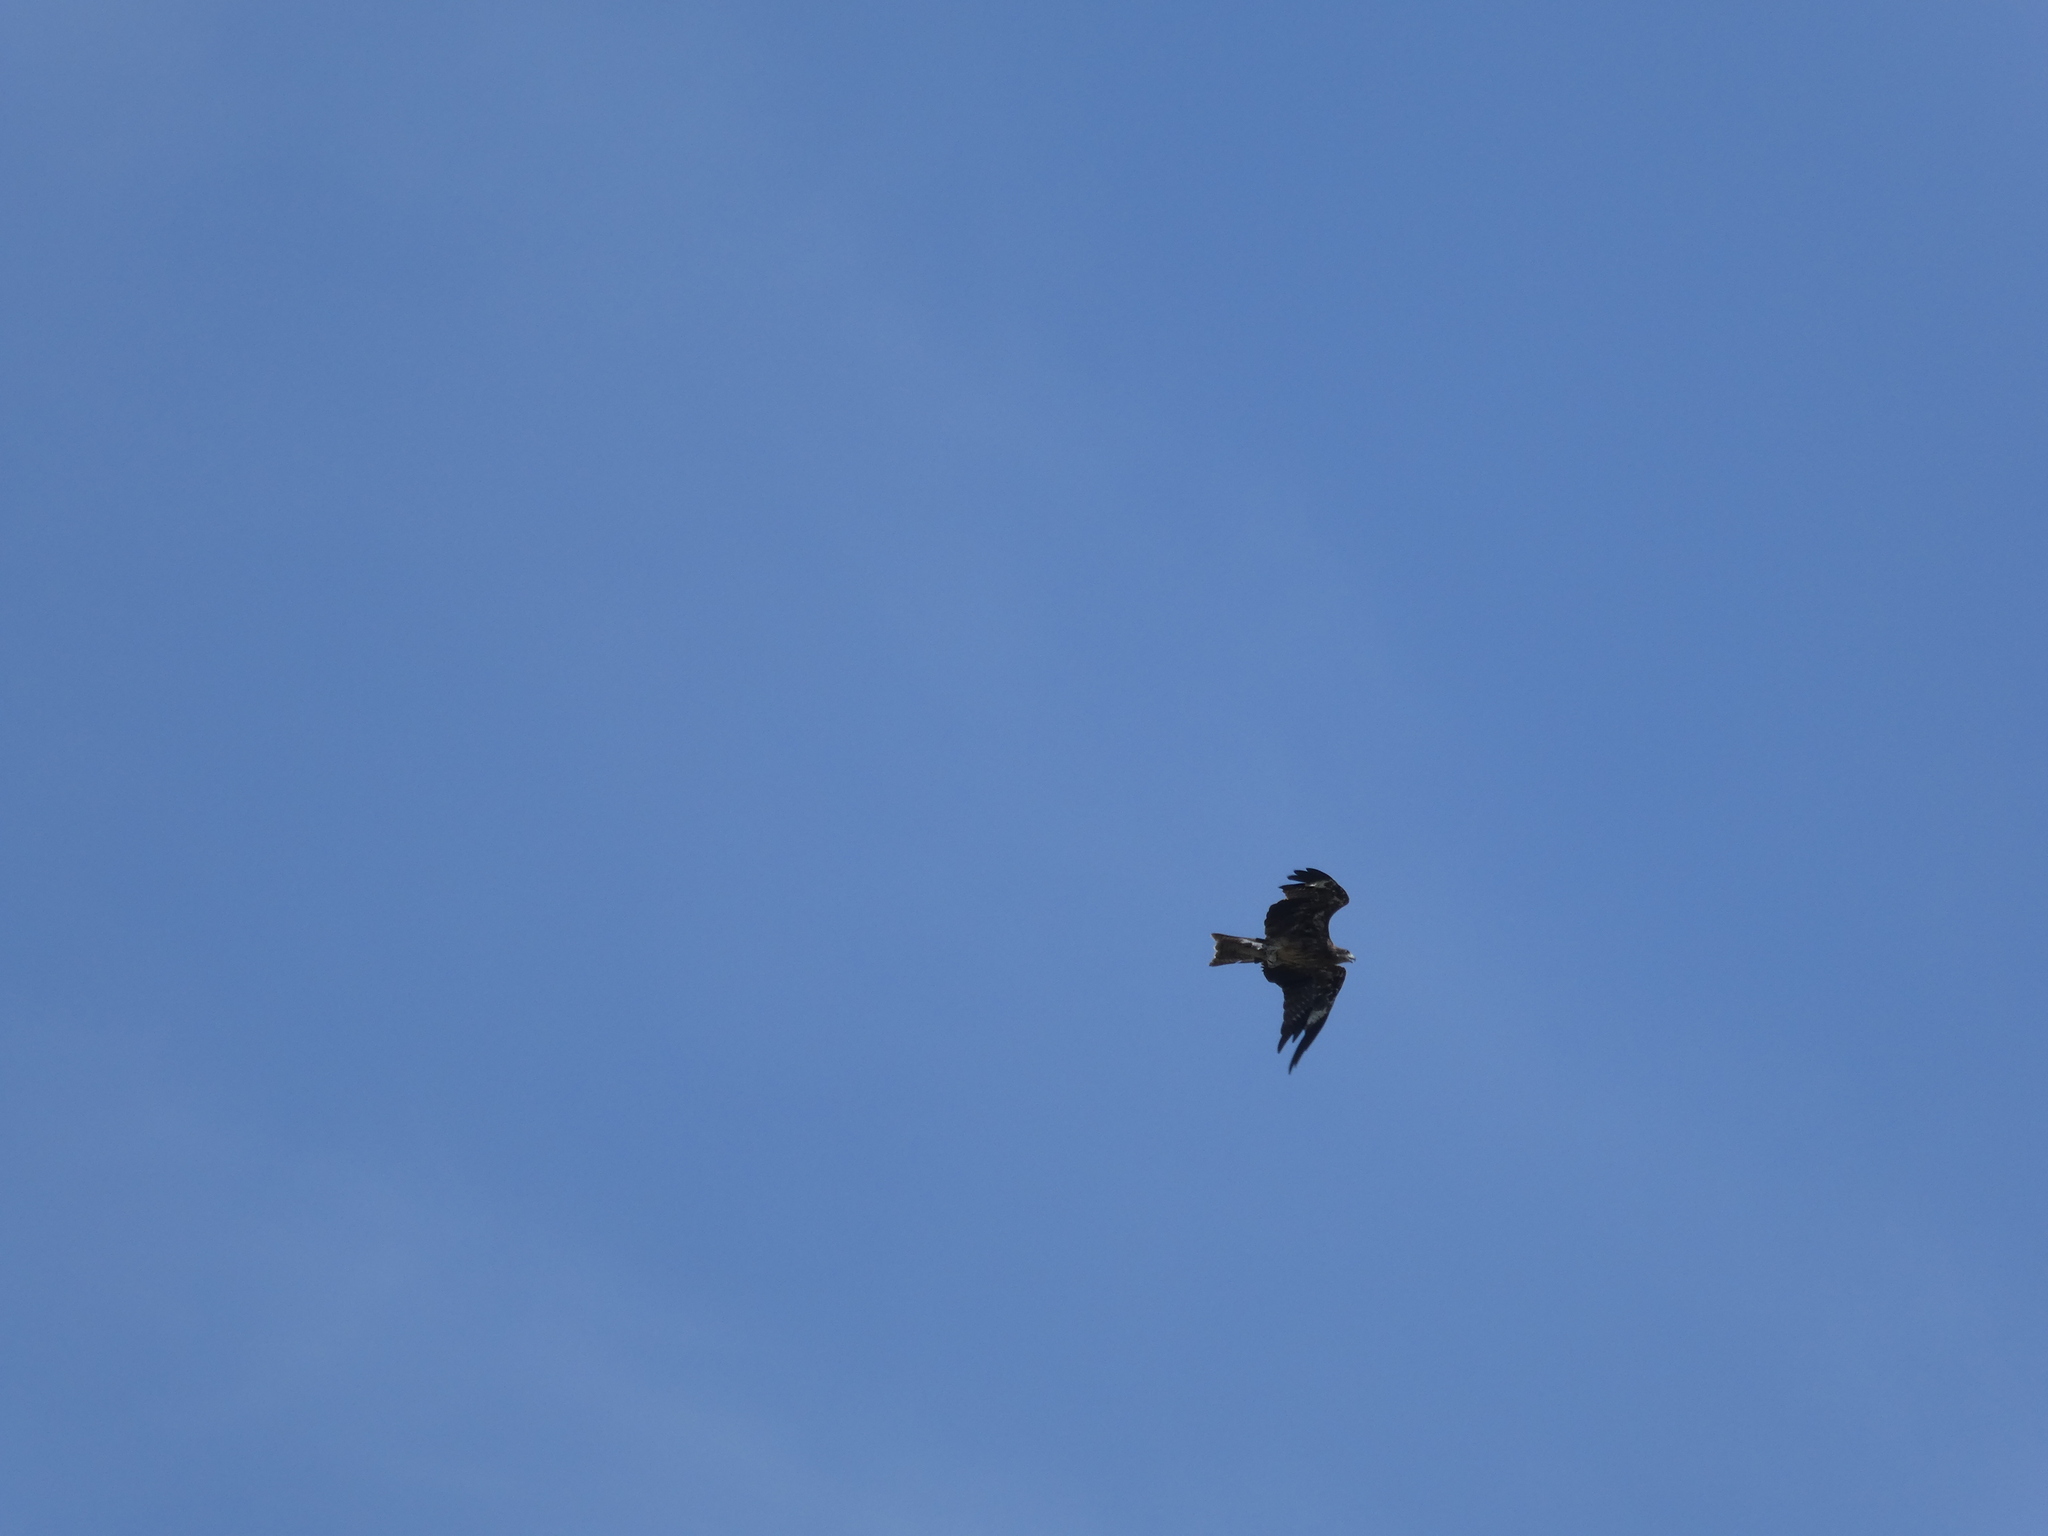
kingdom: Animalia
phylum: Chordata
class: Aves
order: Accipitriformes
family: Accipitridae
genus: Milvus
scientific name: Milvus migrans
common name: Black kite
